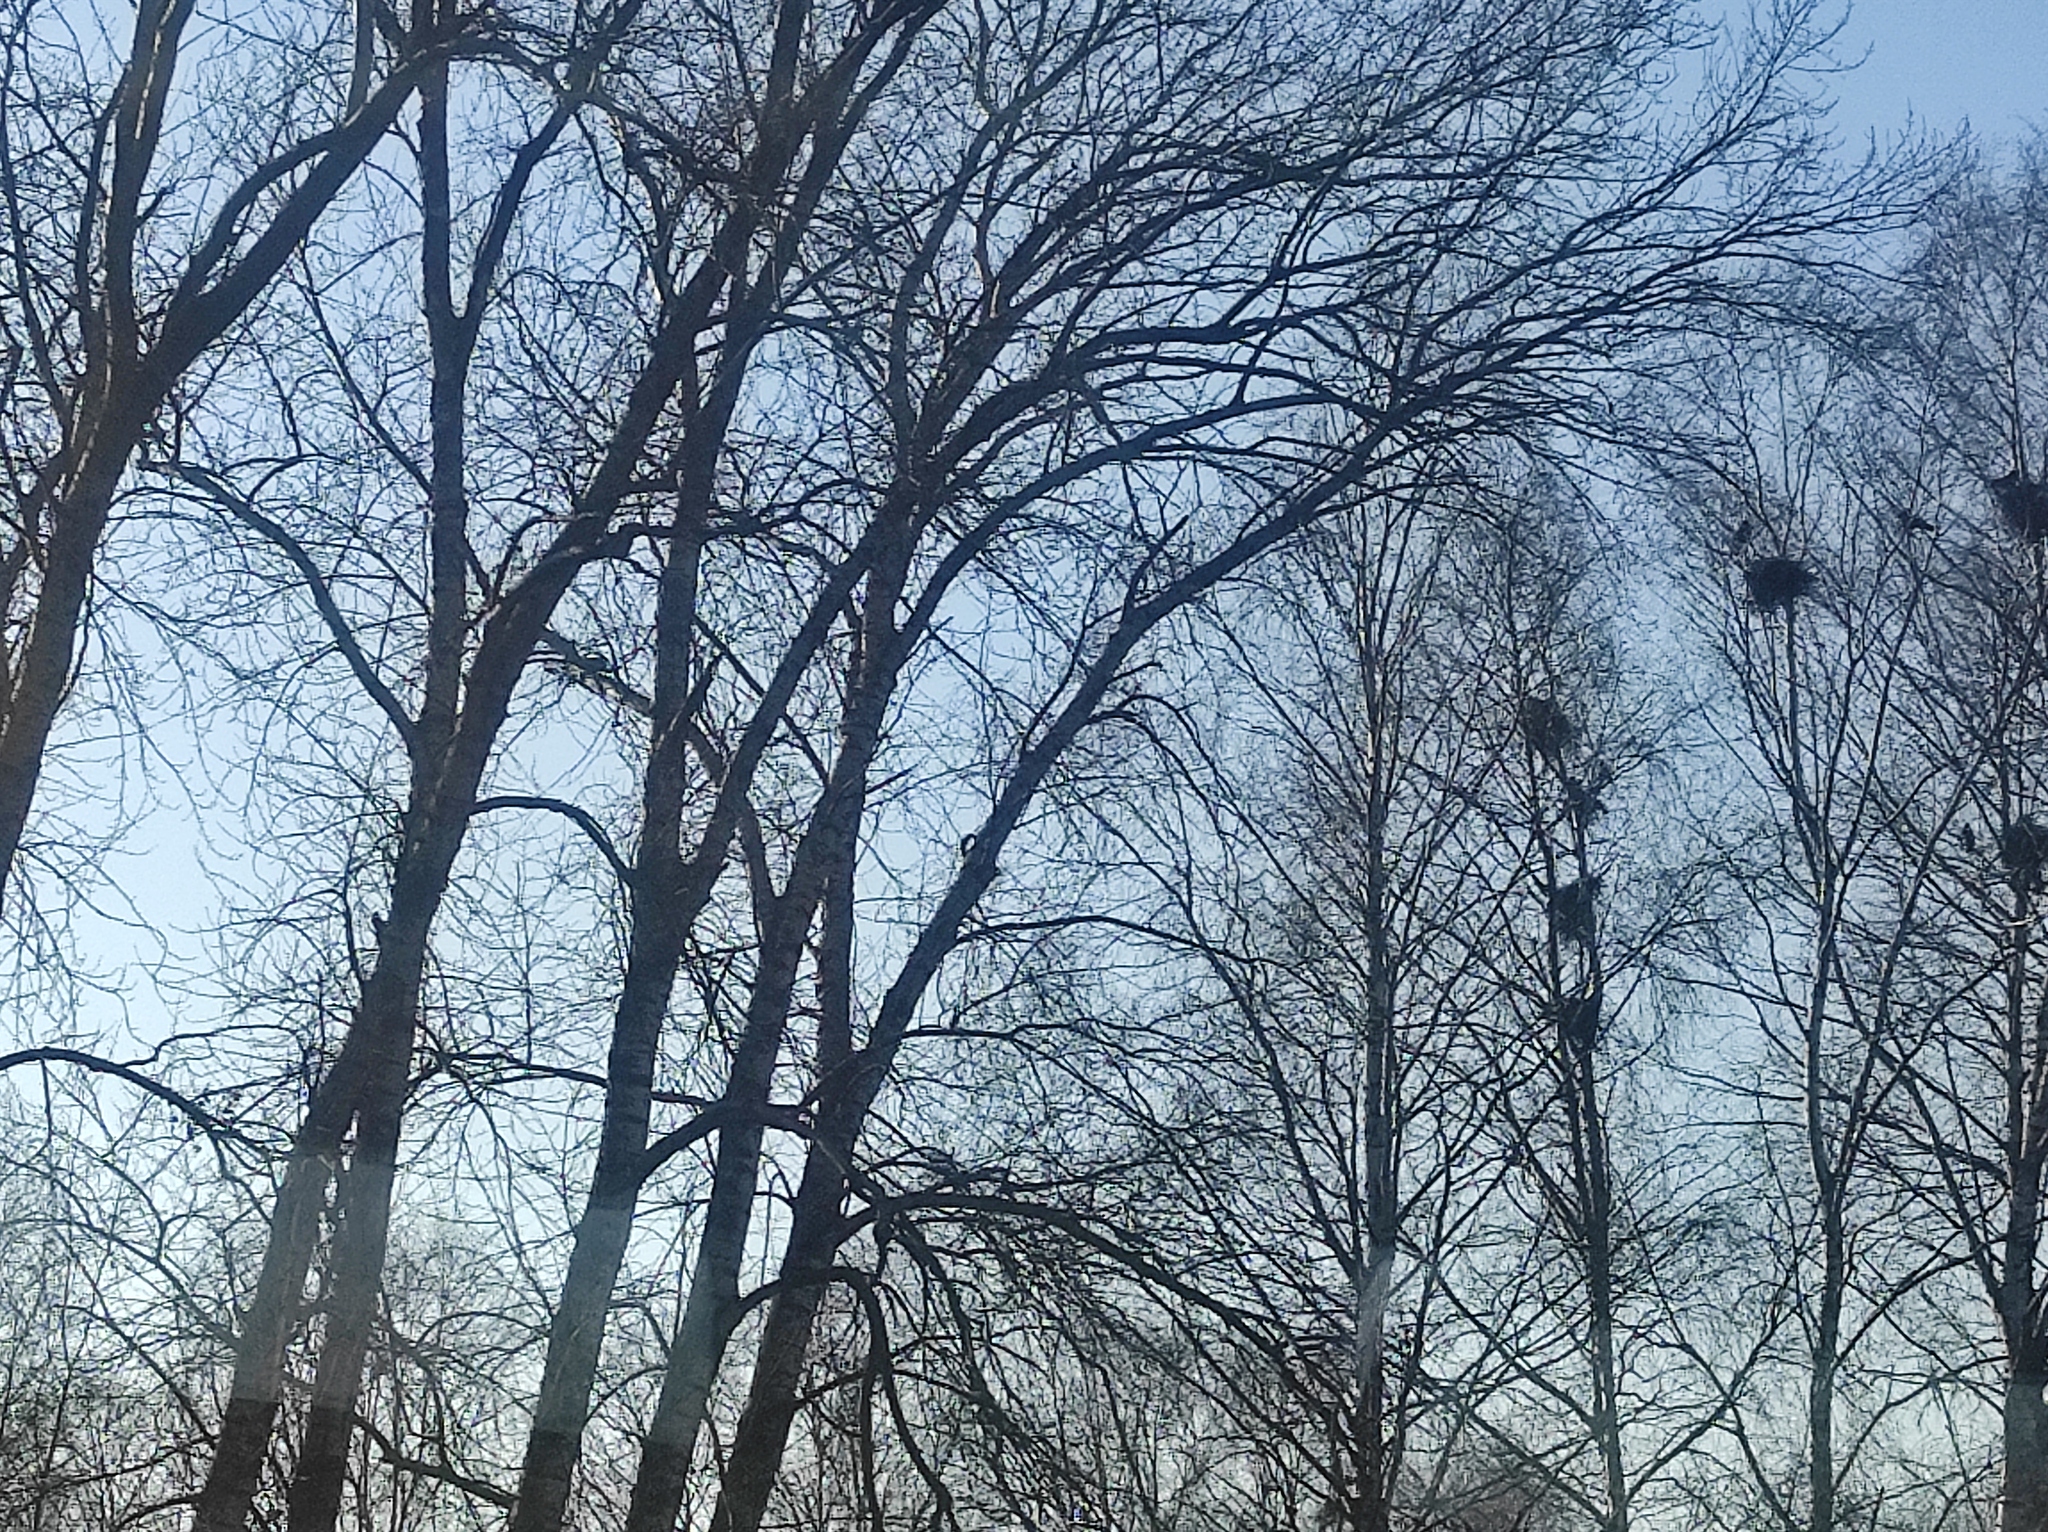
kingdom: Animalia
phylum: Chordata
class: Aves
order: Passeriformes
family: Corvidae
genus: Corvus
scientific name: Corvus frugilegus
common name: Rook
